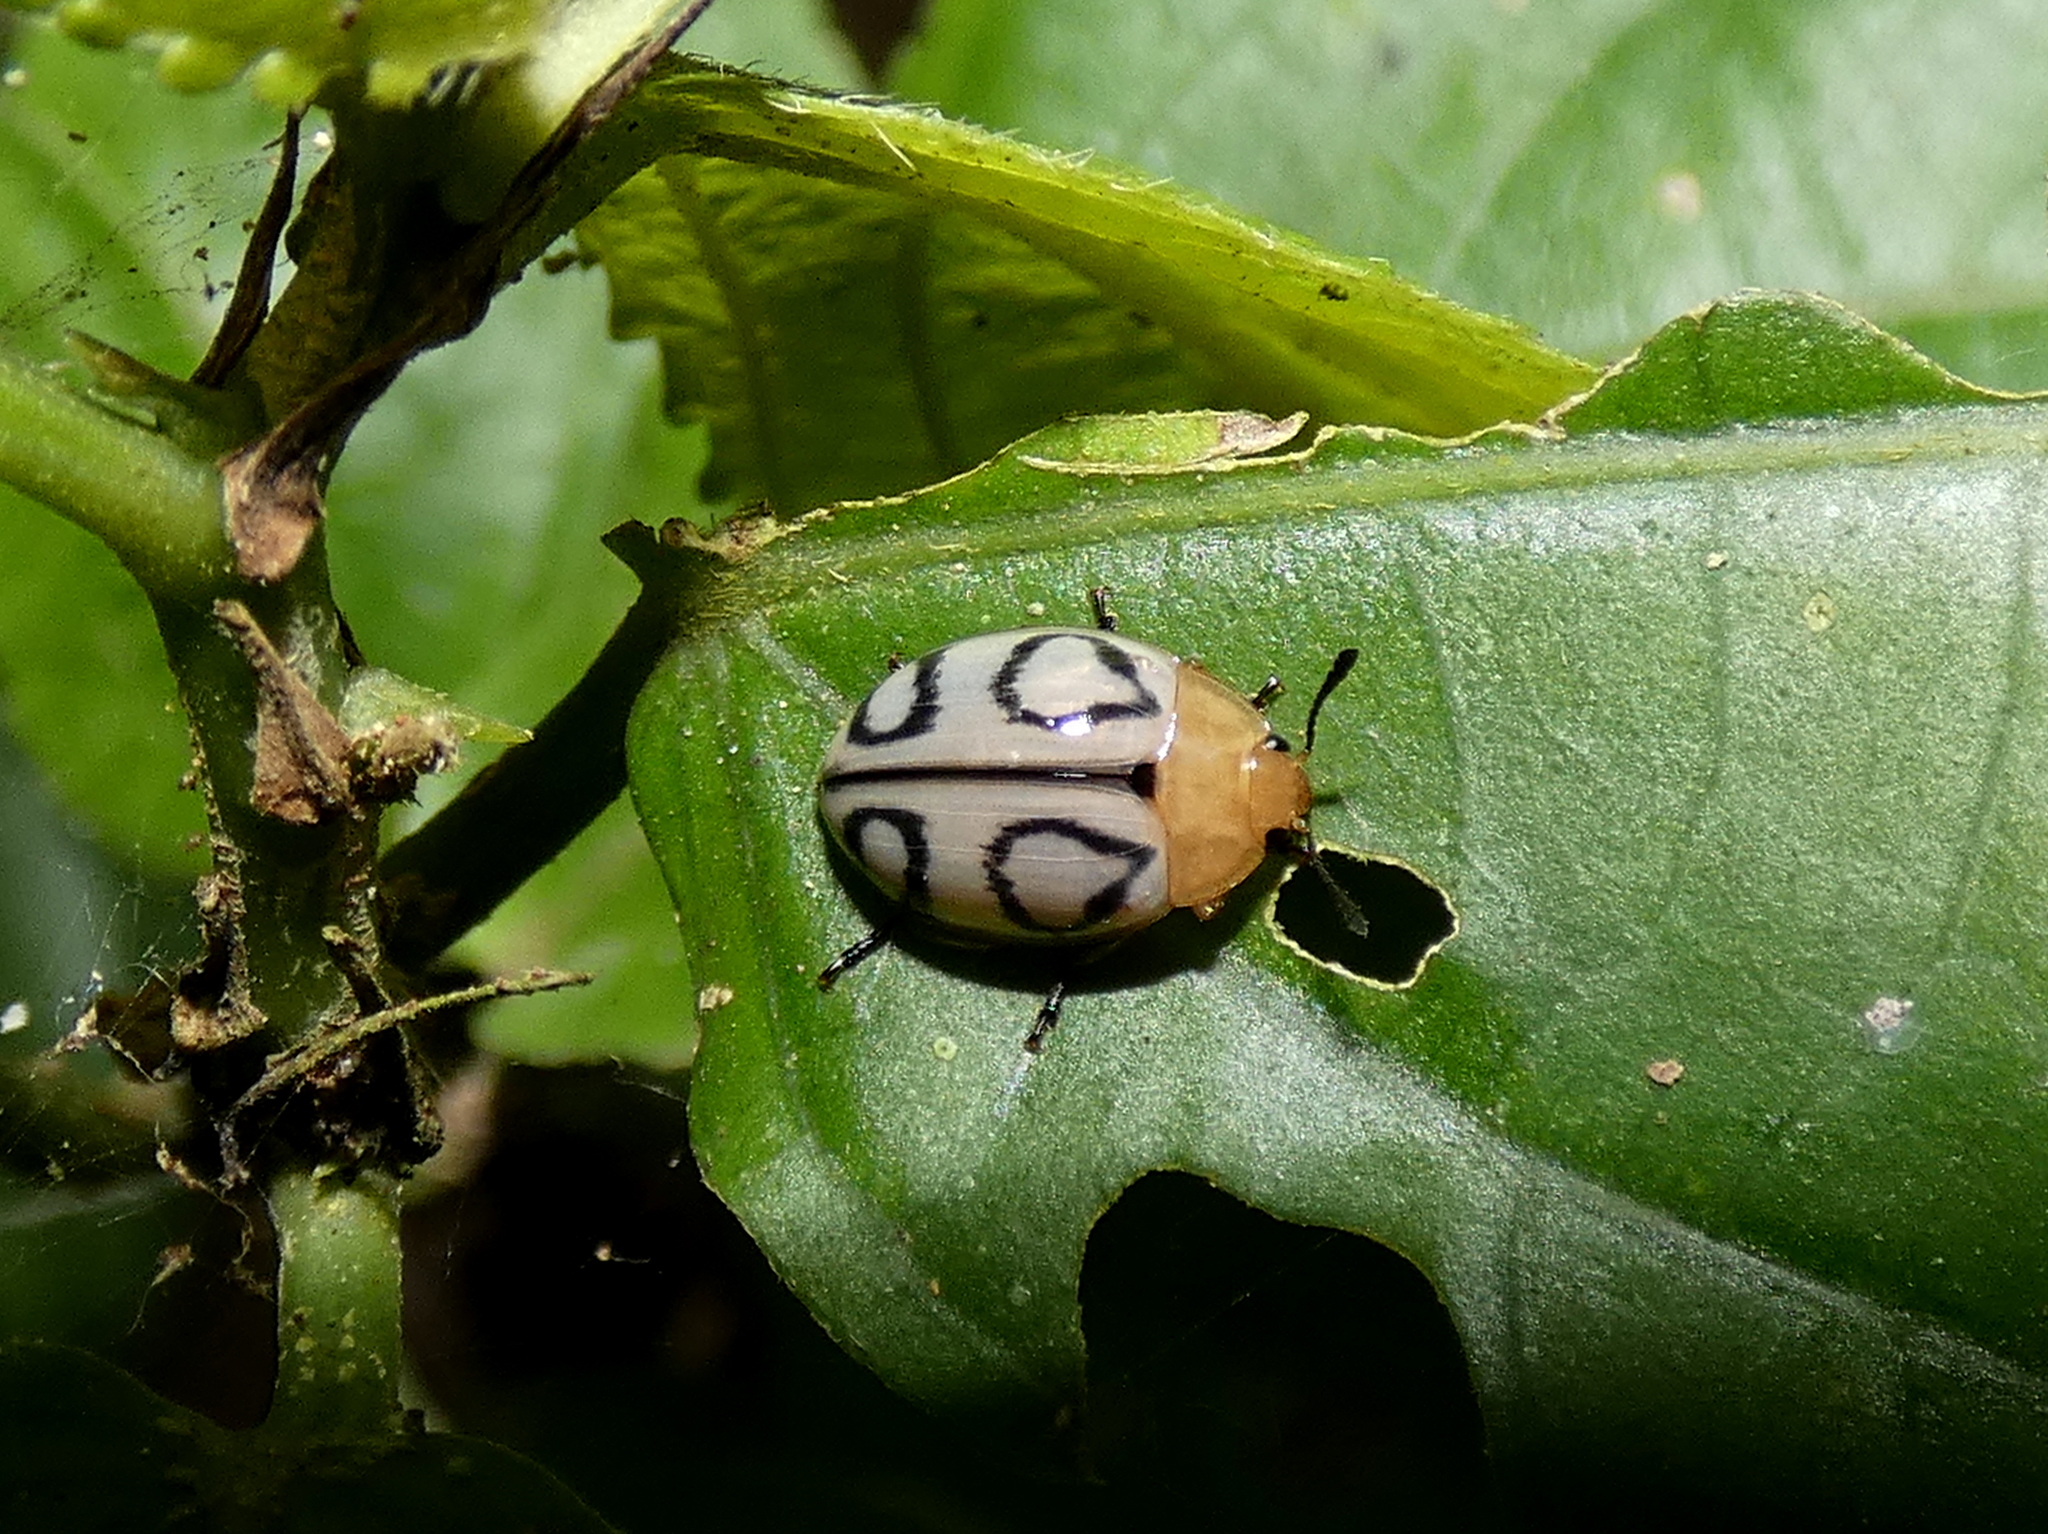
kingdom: Animalia
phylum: Arthropoda
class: Insecta
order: Coleoptera
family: Erotylidae
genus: Iphiclus
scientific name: Iphiclus
